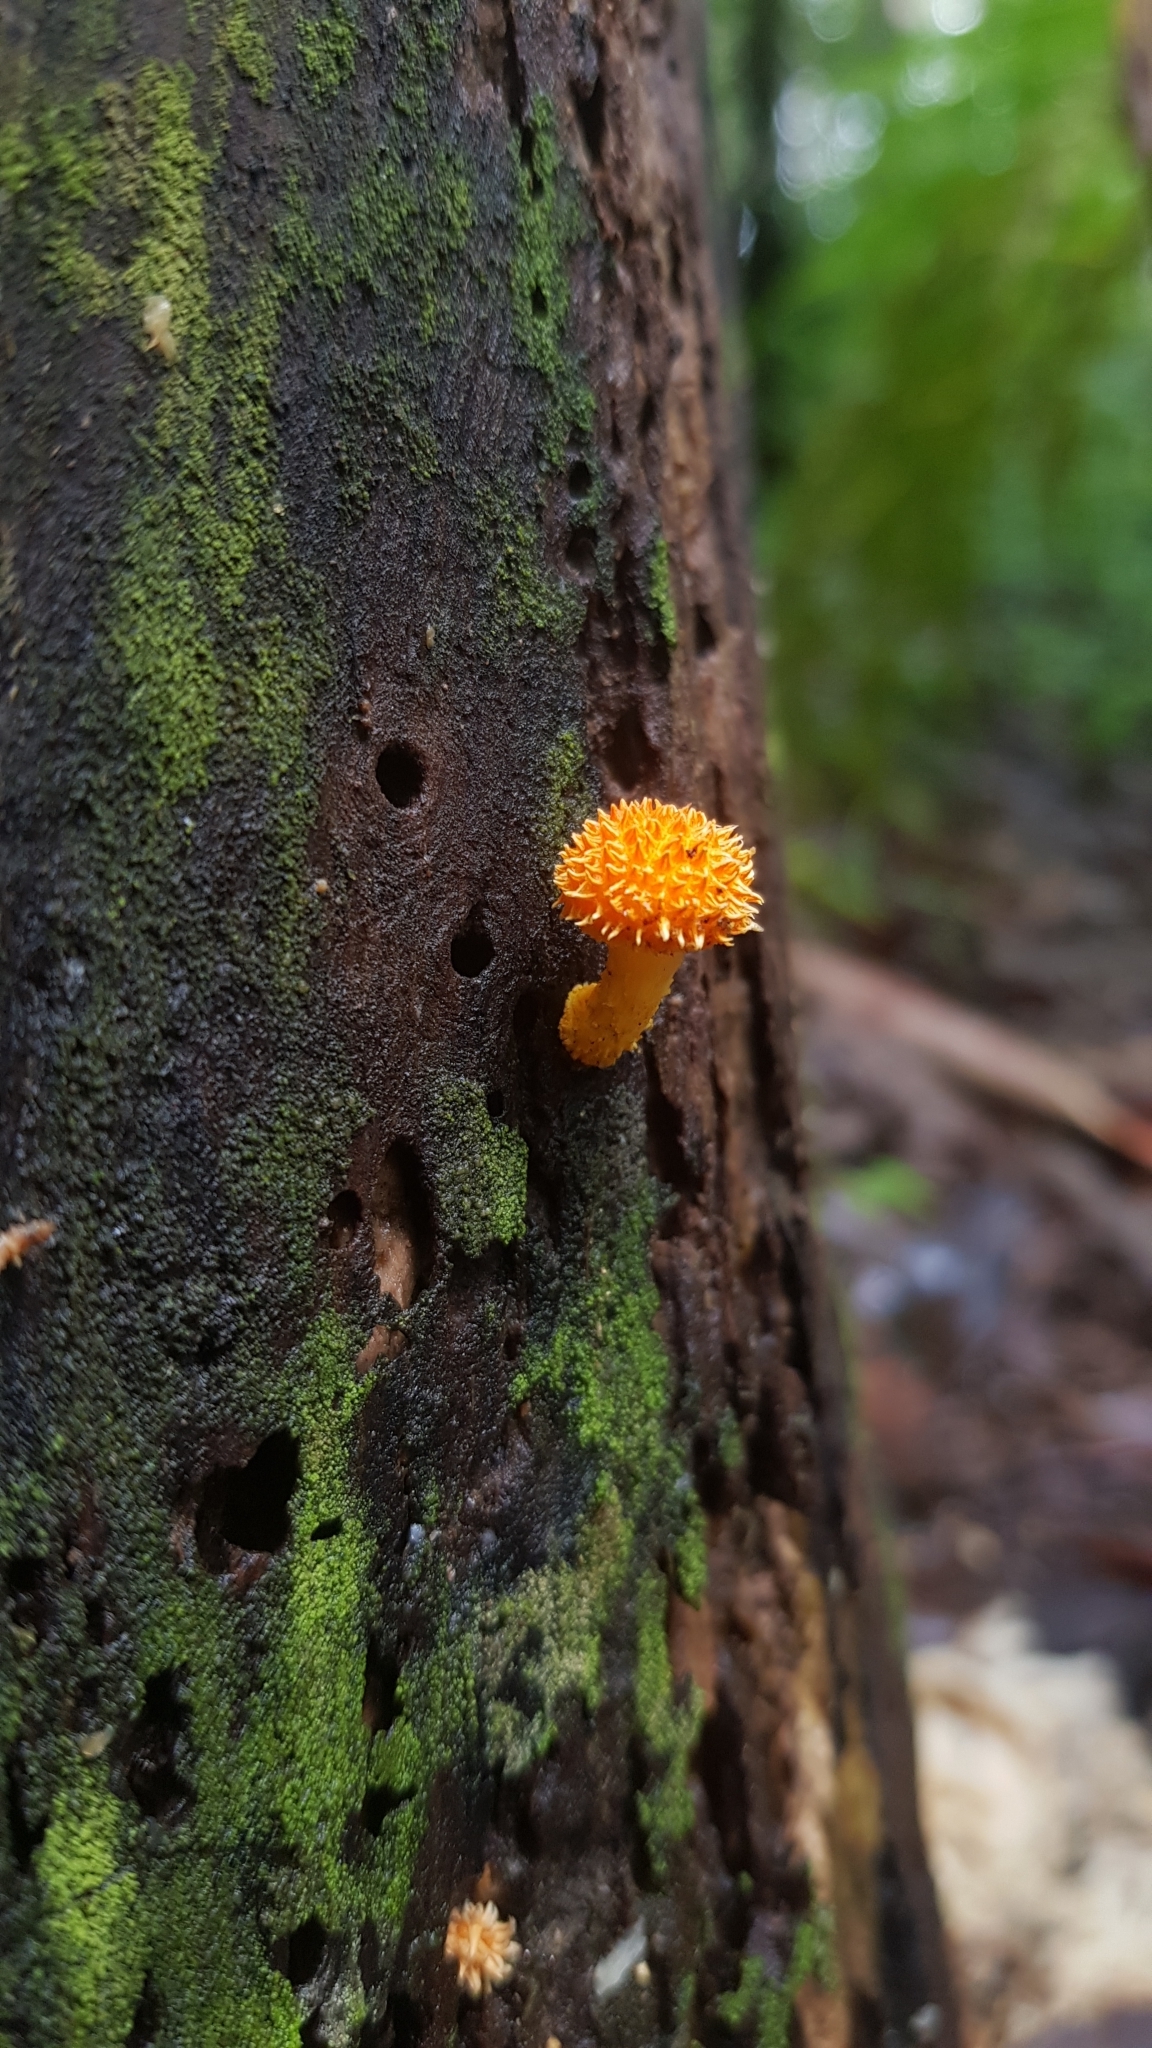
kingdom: Fungi
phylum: Basidiomycota
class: Agaricomycetes
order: Agaricales
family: Physalacriaceae
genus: Cyptotrama
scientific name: Cyptotrama asprata
